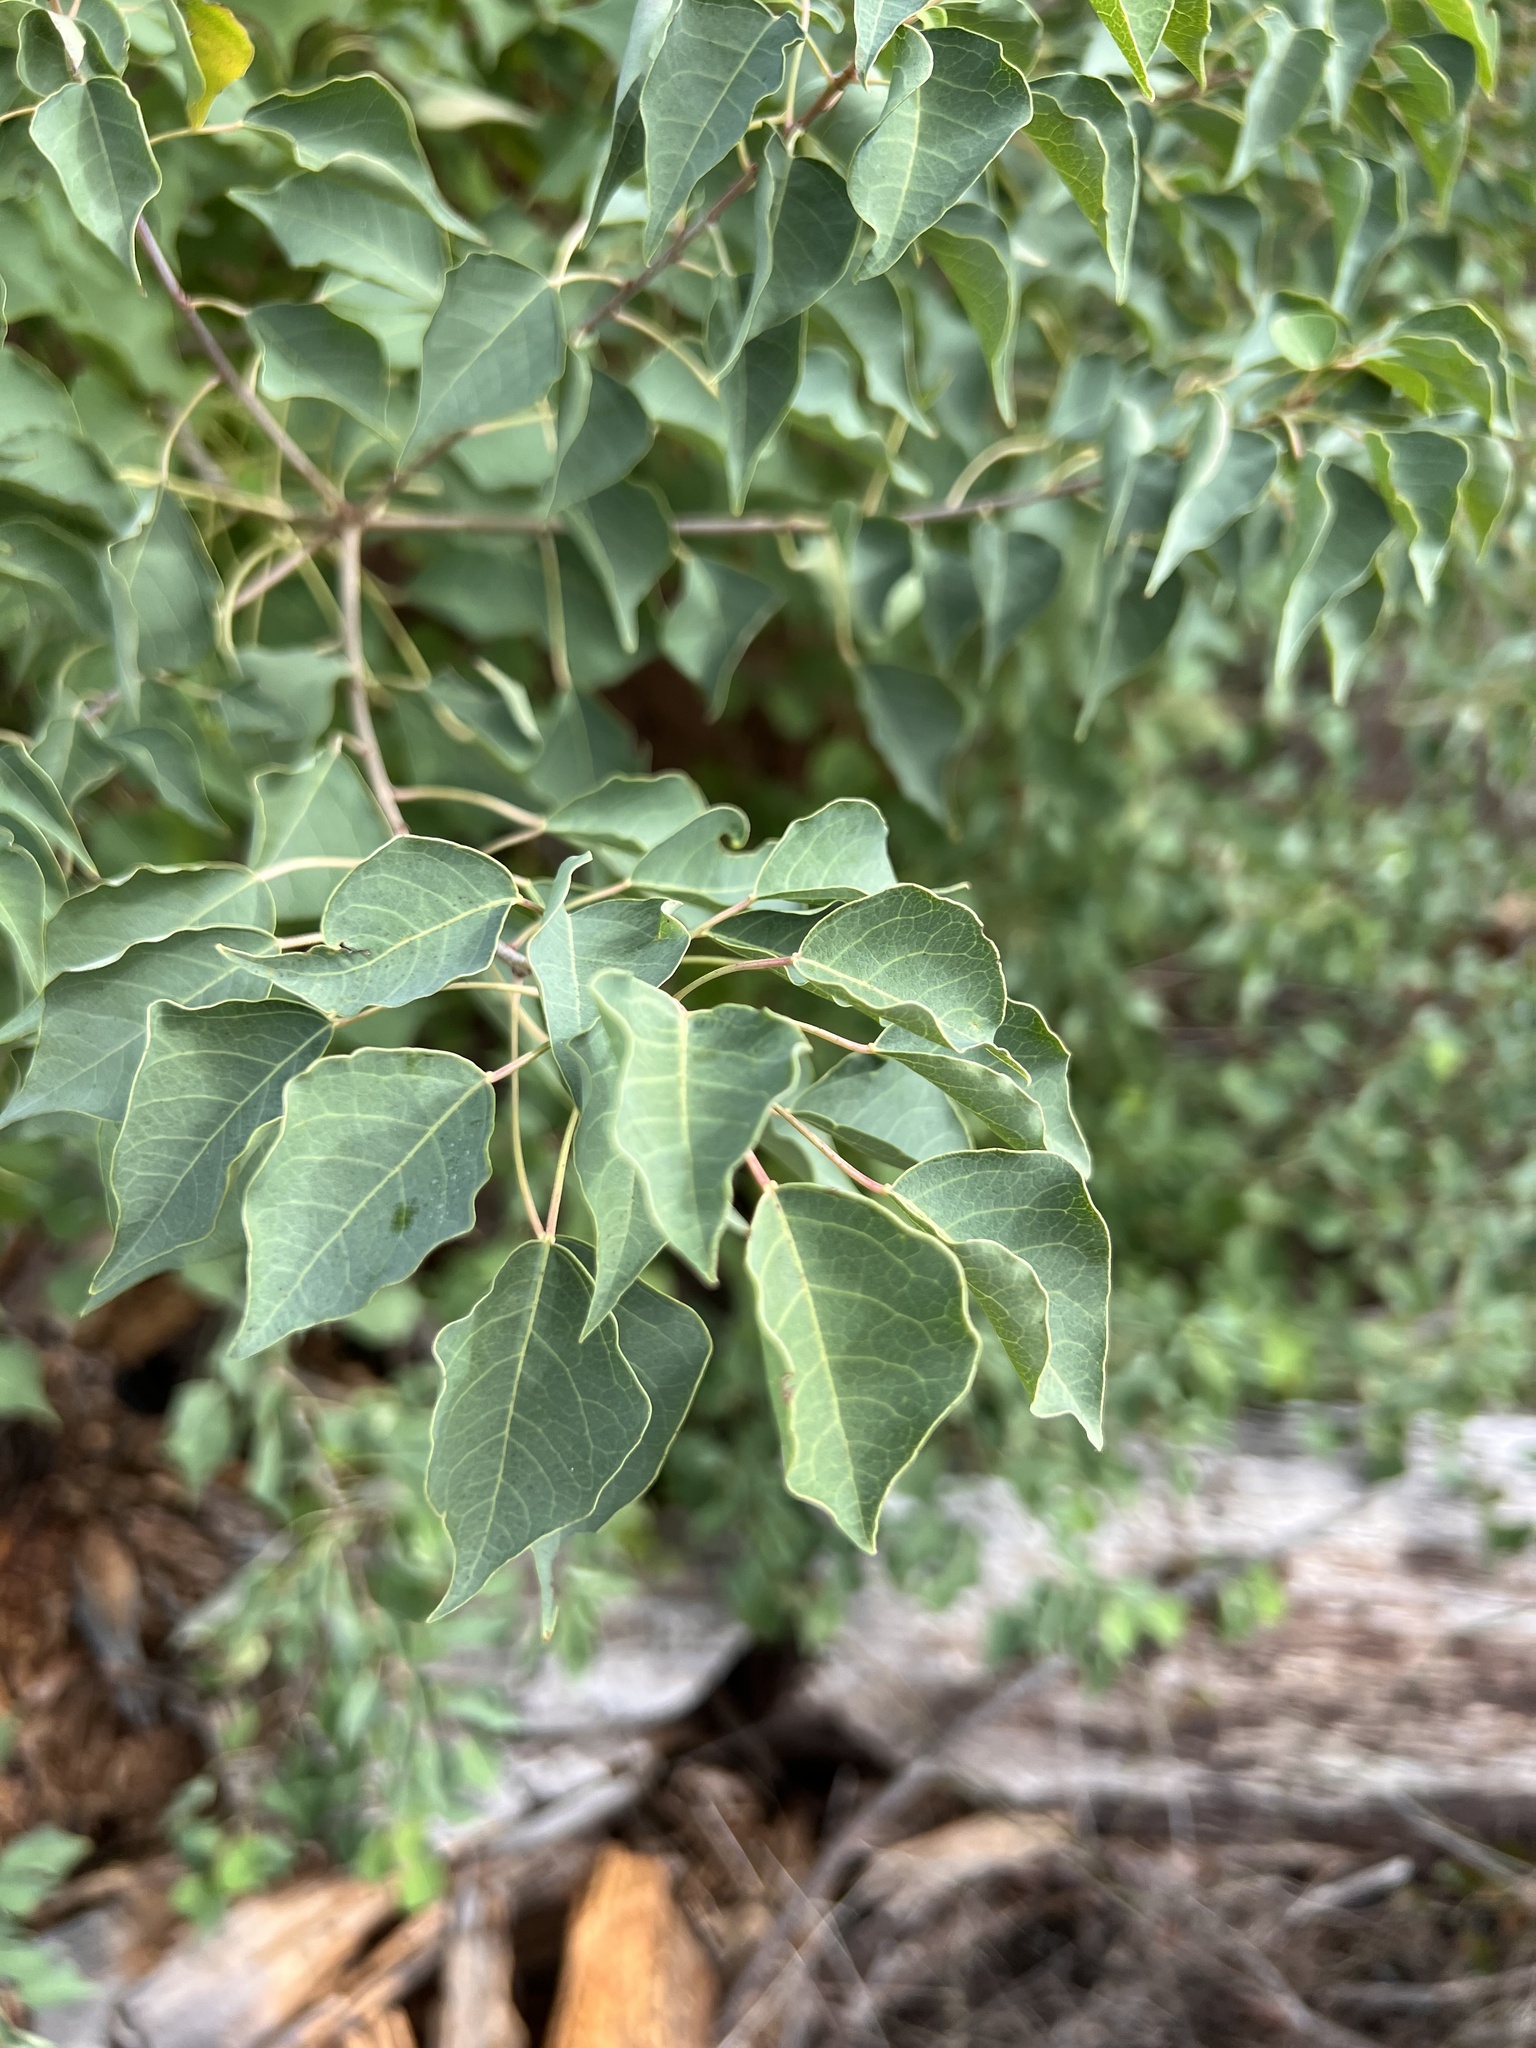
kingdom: Plantae
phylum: Tracheophyta
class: Magnoliopsida
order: Malpighiales
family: Euphorbiaceae
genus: Triadica
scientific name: Triadica sebifera
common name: Chinese tallow
